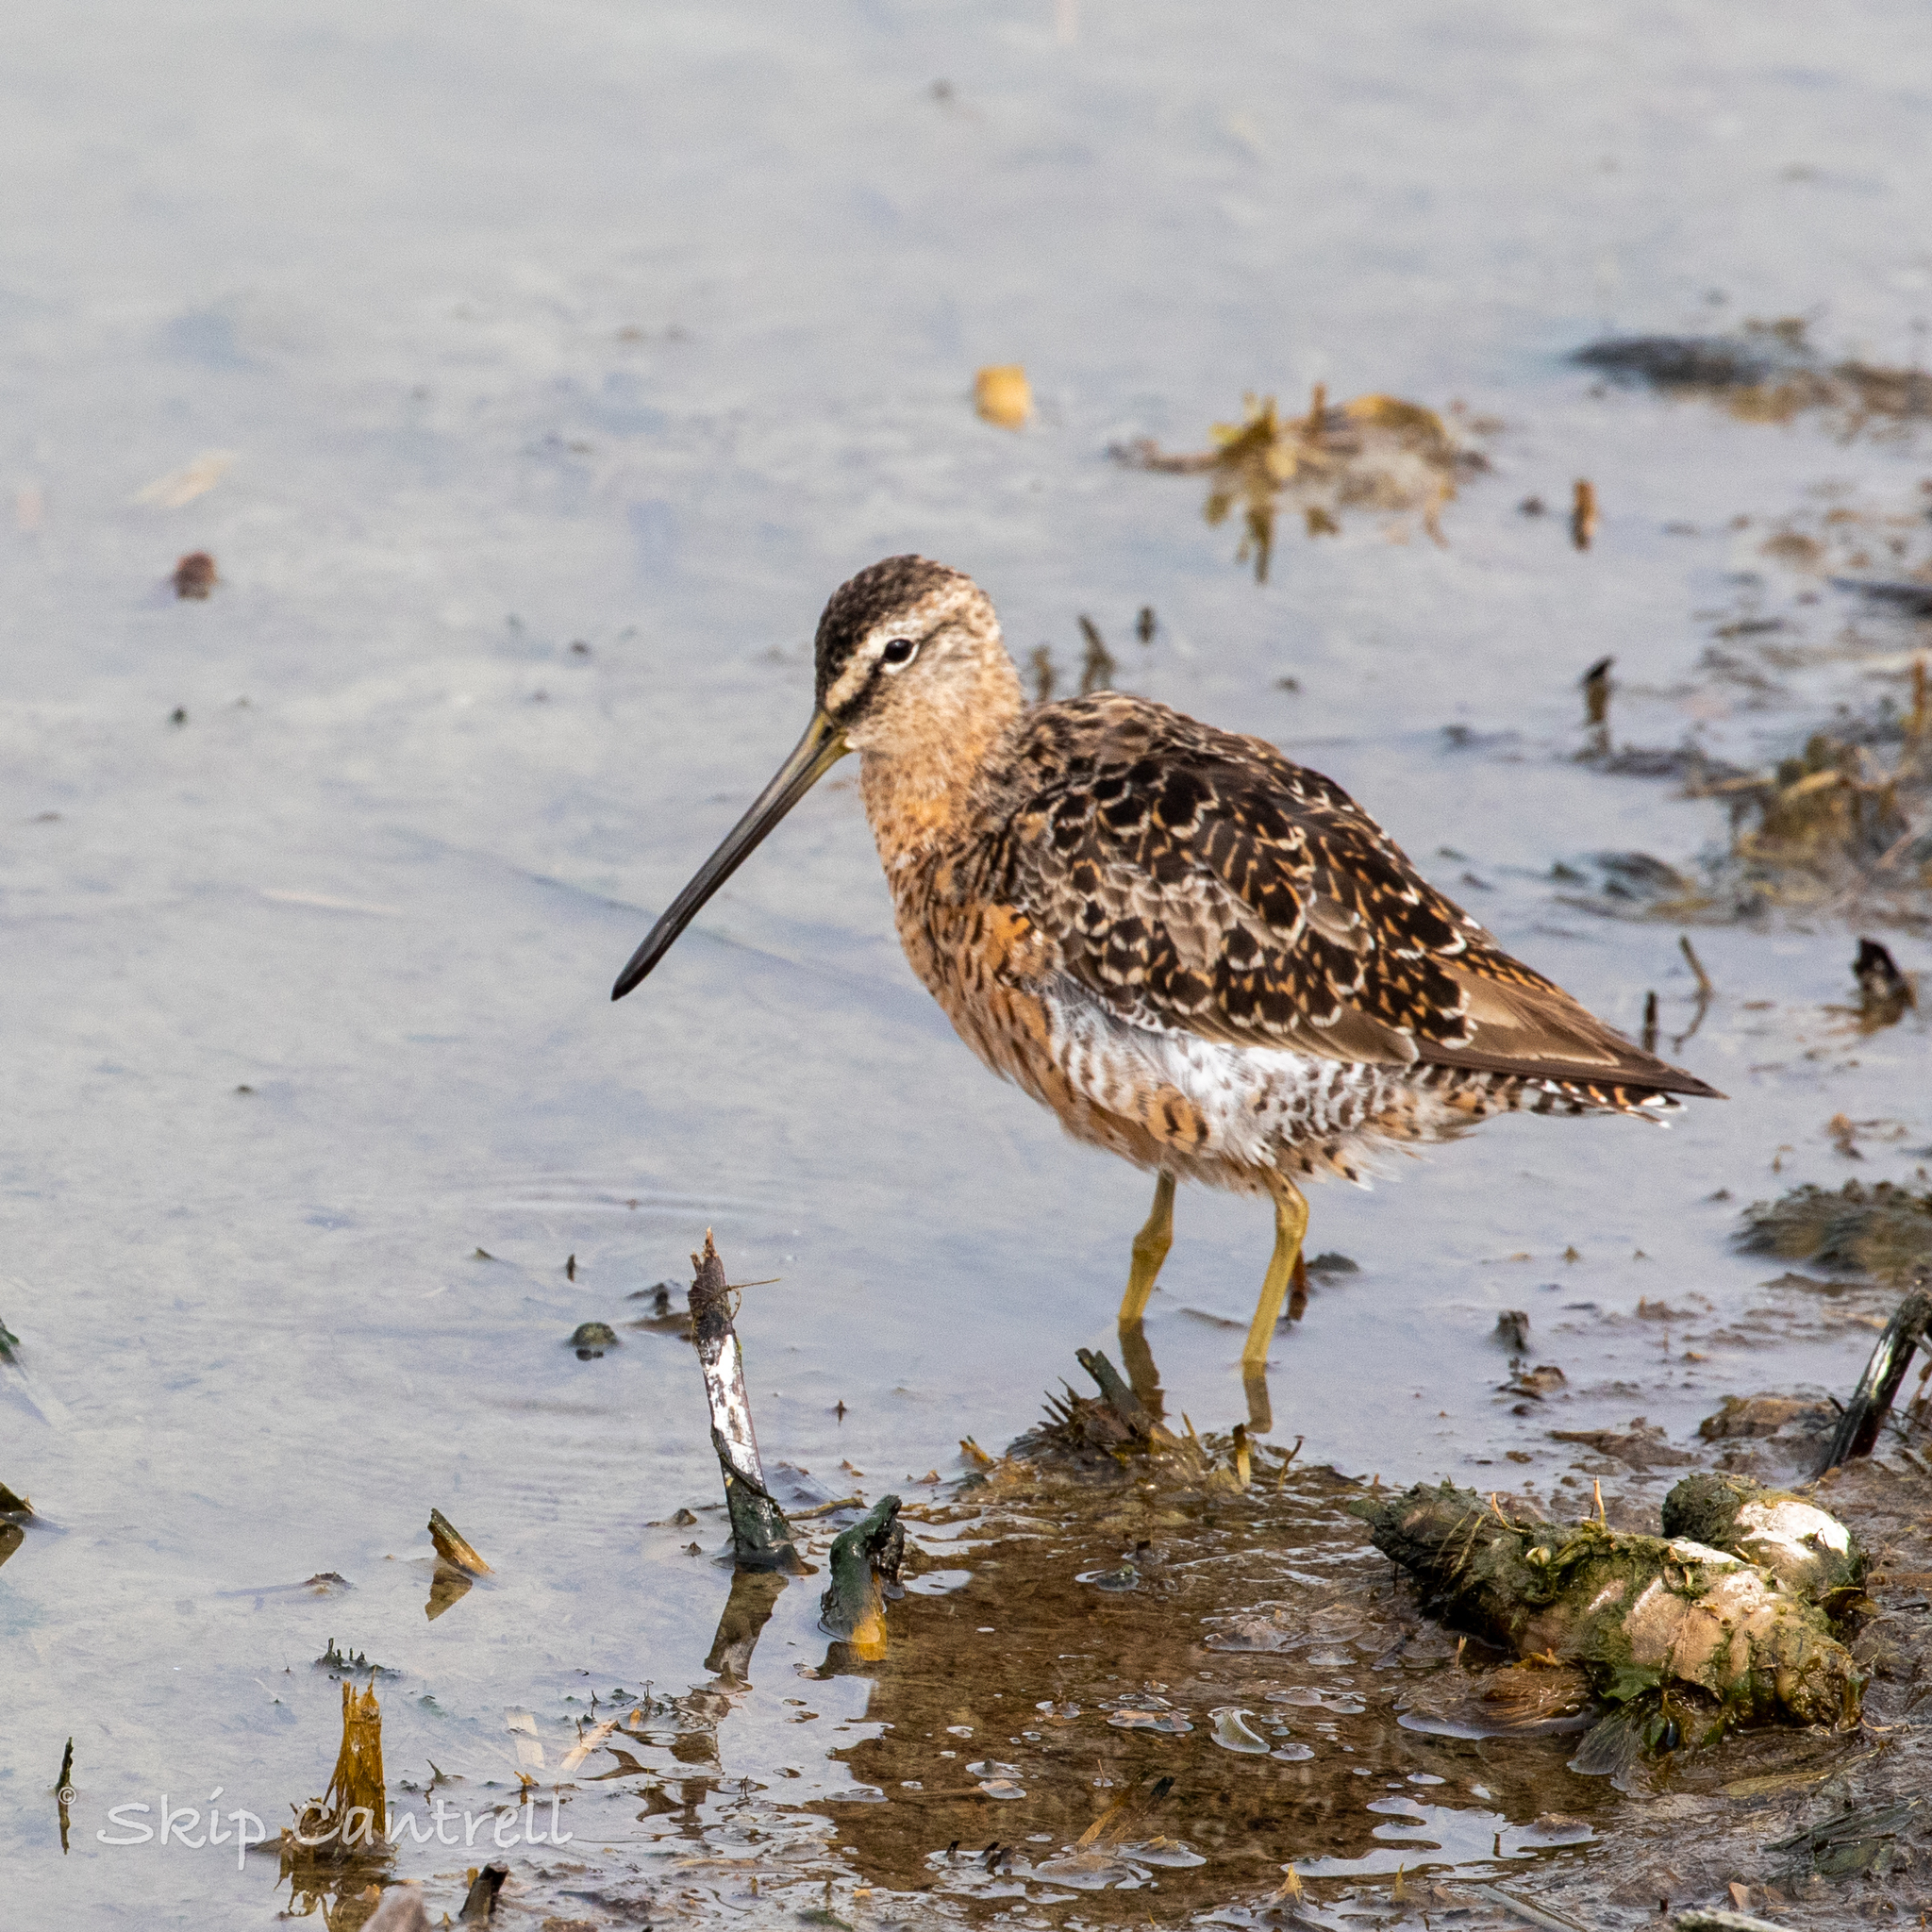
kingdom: Animalia
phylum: Chordata
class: Aves
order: Charadriiformes
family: Scolopacidae
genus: Limnodromus
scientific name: Limnodromus scolopaceus
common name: Long-billed dowitcher
